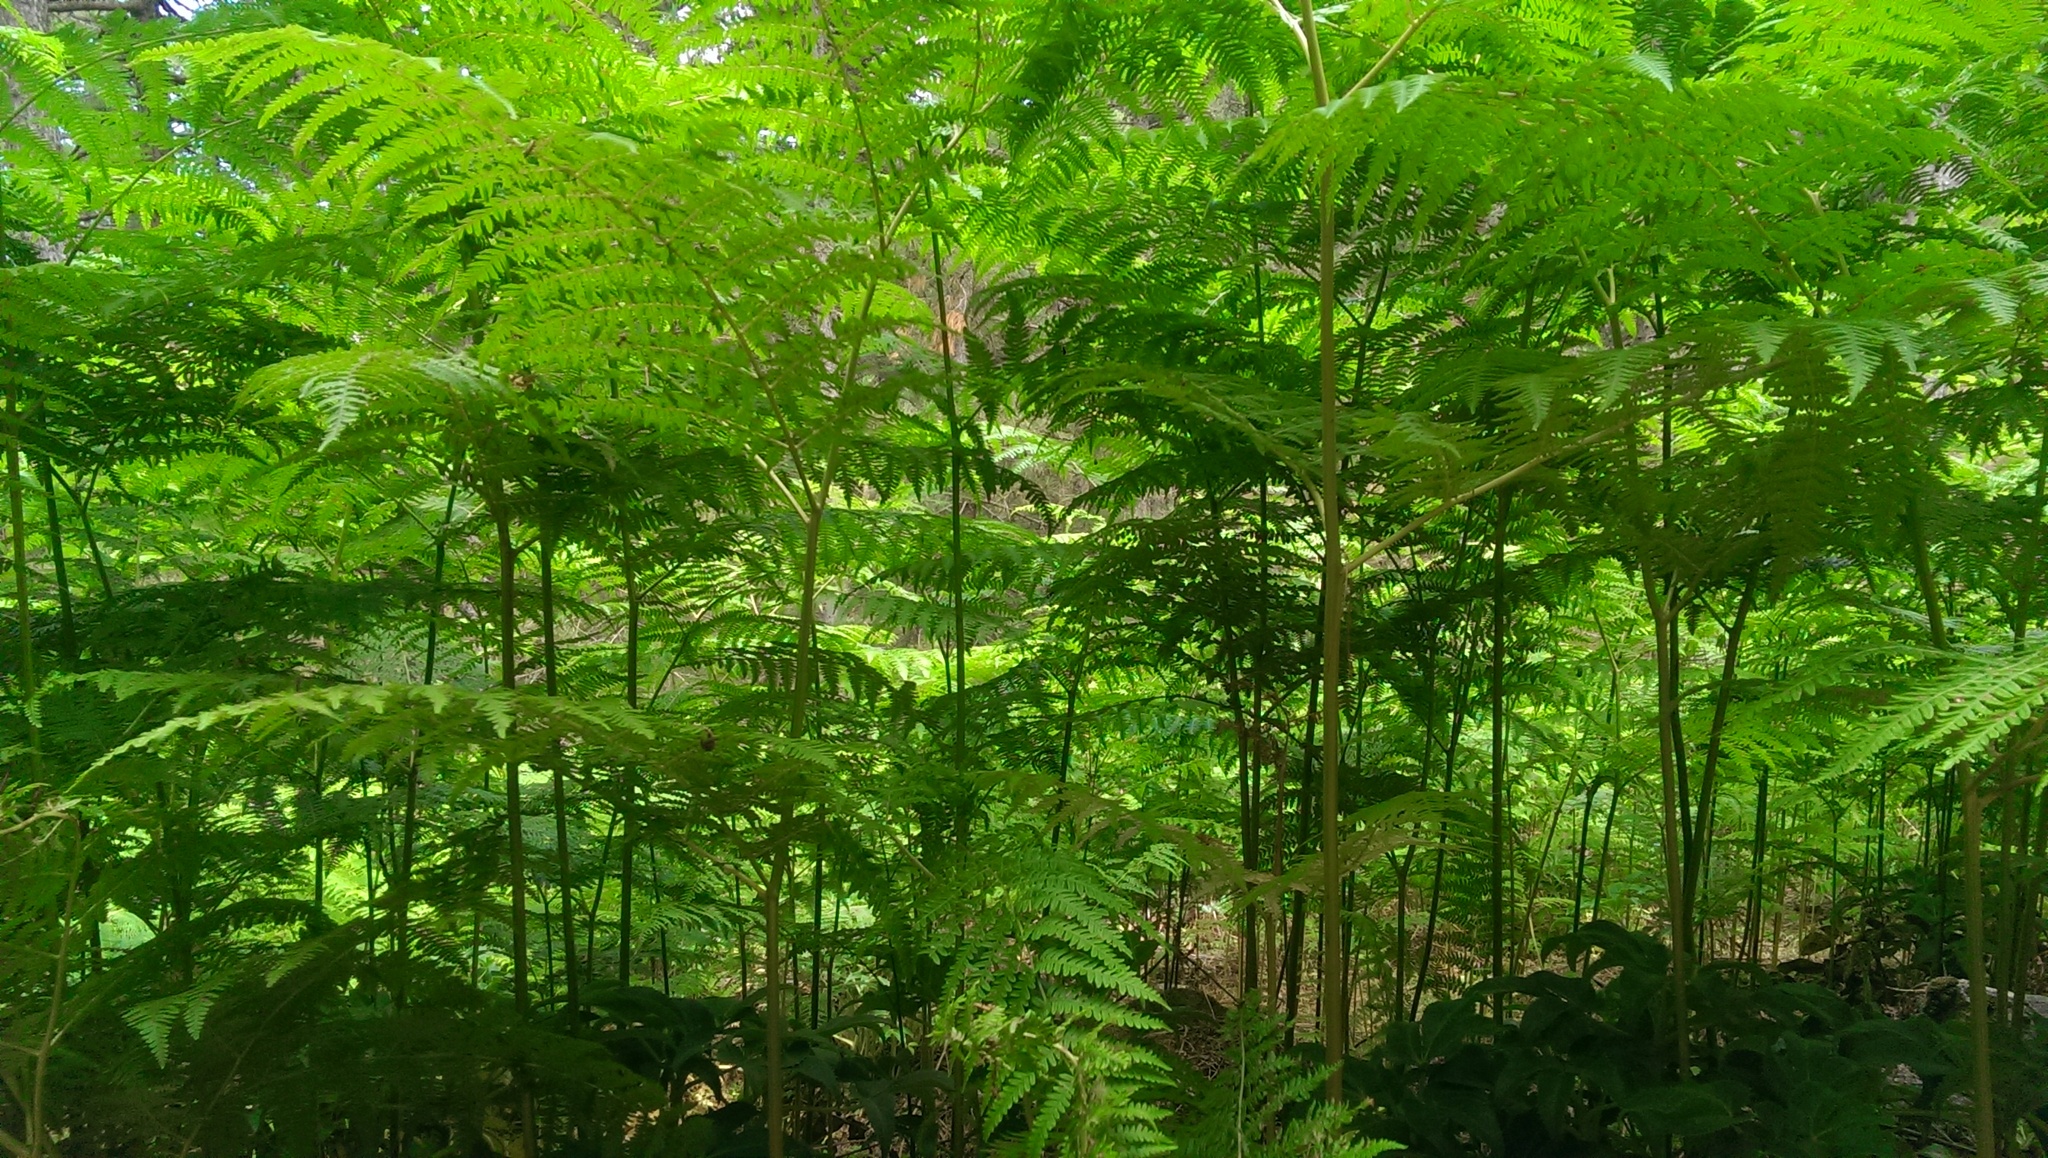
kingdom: Plantae
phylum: Tracheophyta
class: Polypodiopsida
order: Polypodiales
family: Dennstaedtiaceae
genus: Pteridium
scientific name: Pteridium aquilinum
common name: Bracken
